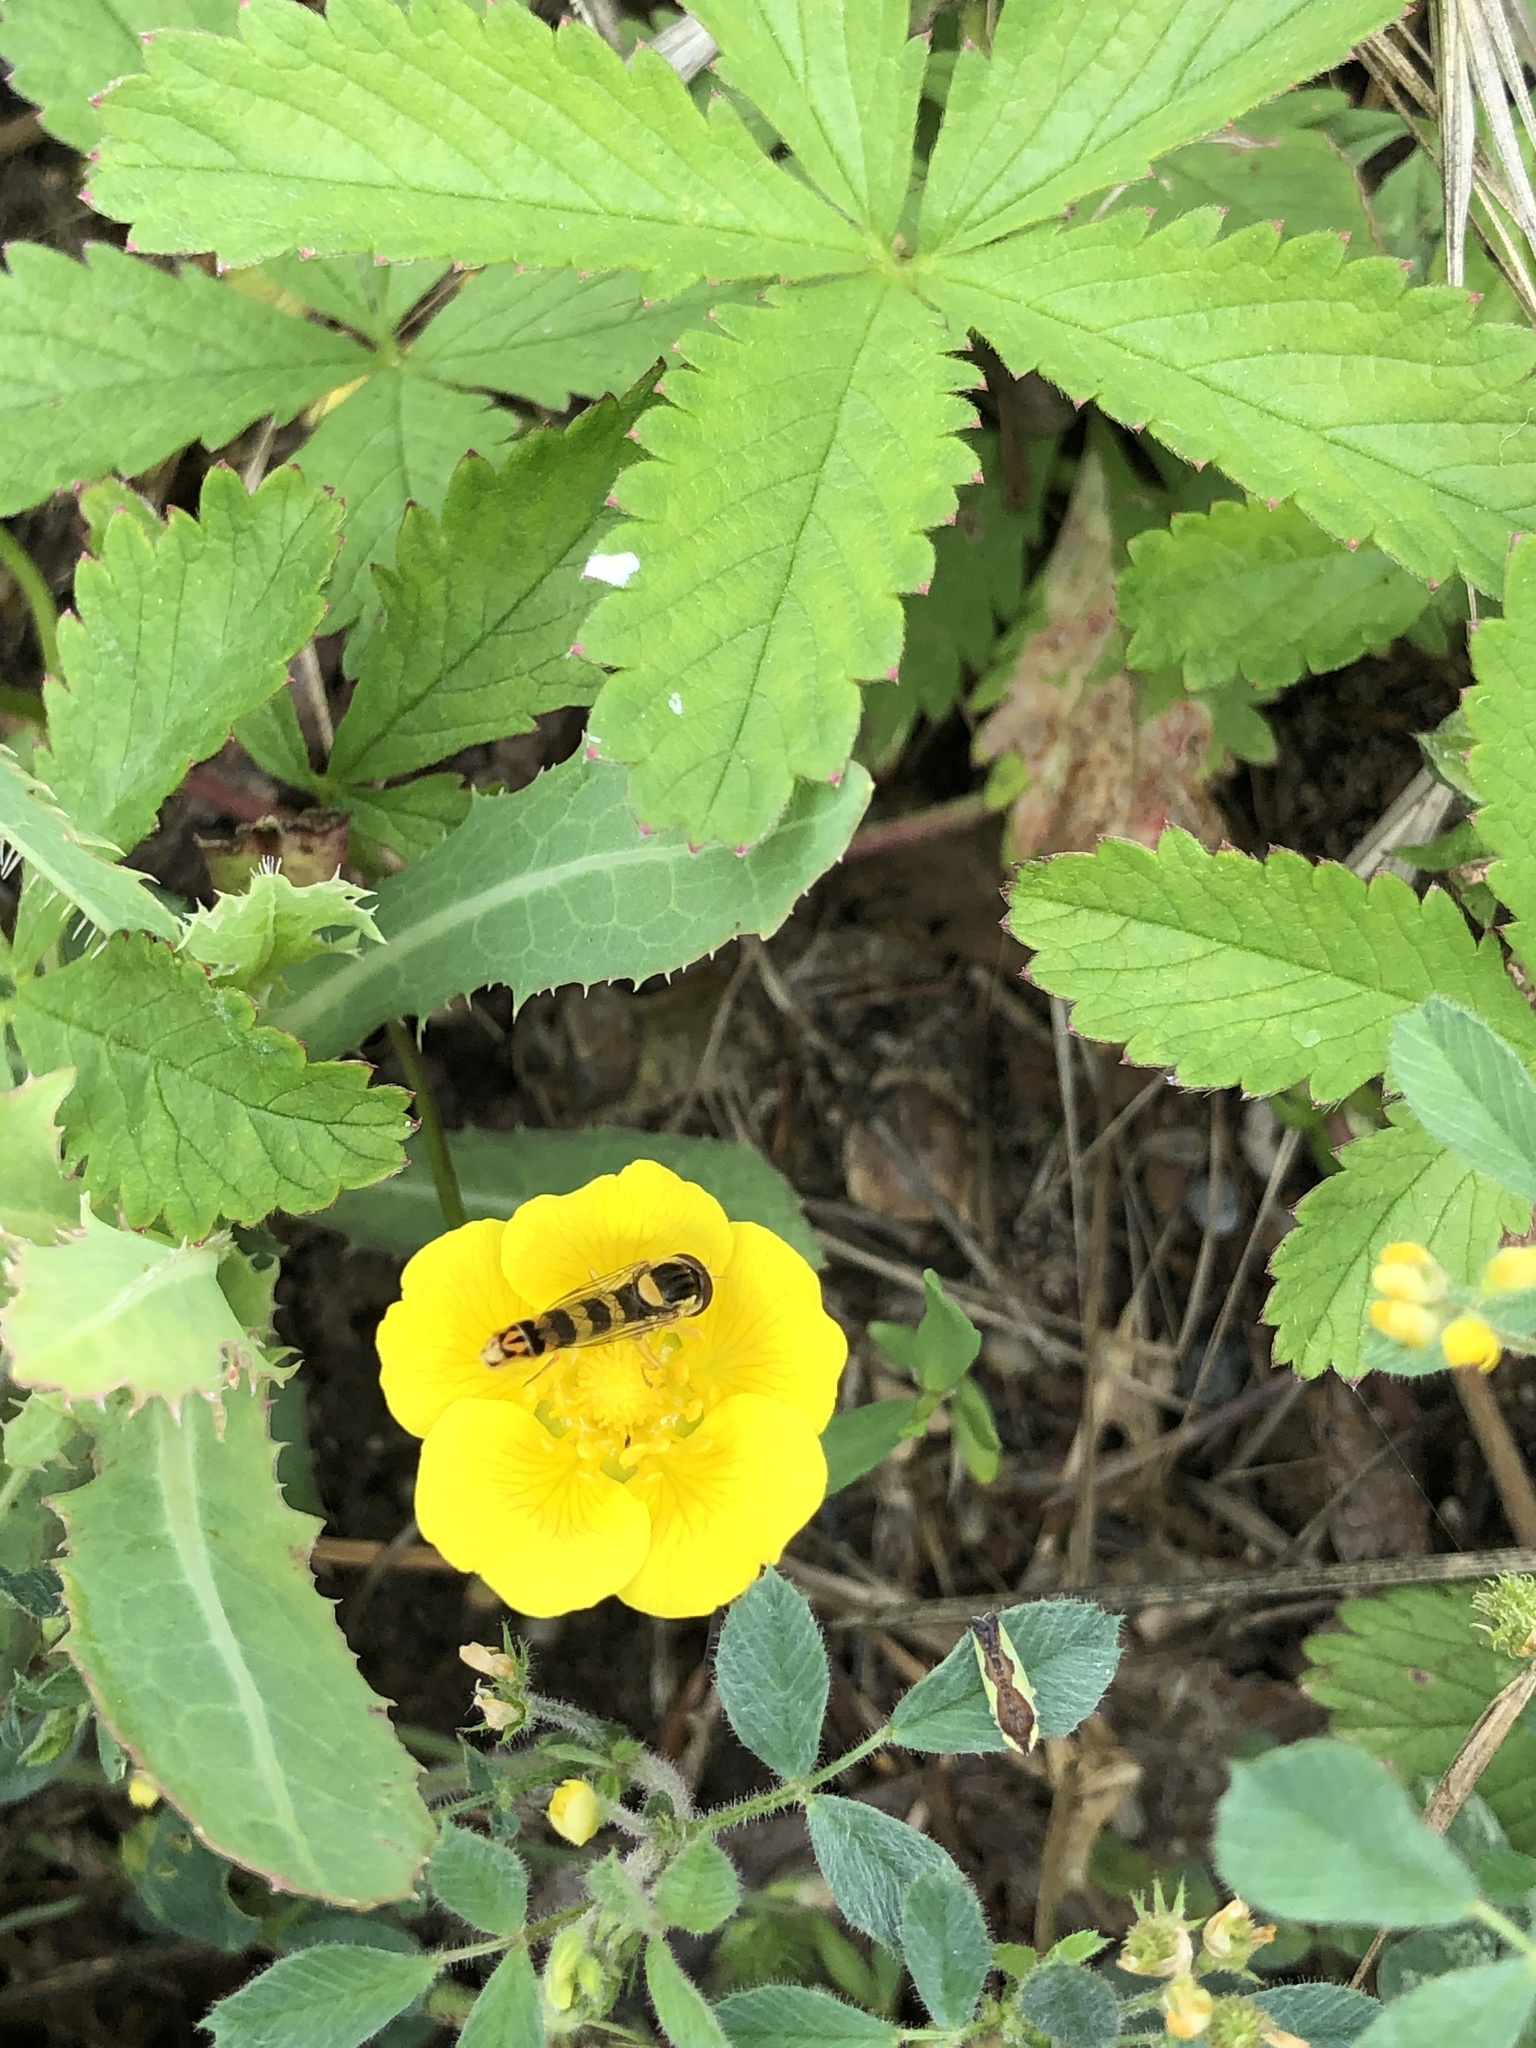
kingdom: Animalia
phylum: Arthropoda
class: Insecta
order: Diptera
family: Syrphidae
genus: Sphaerophoria
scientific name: Sphaerophoria scripta
